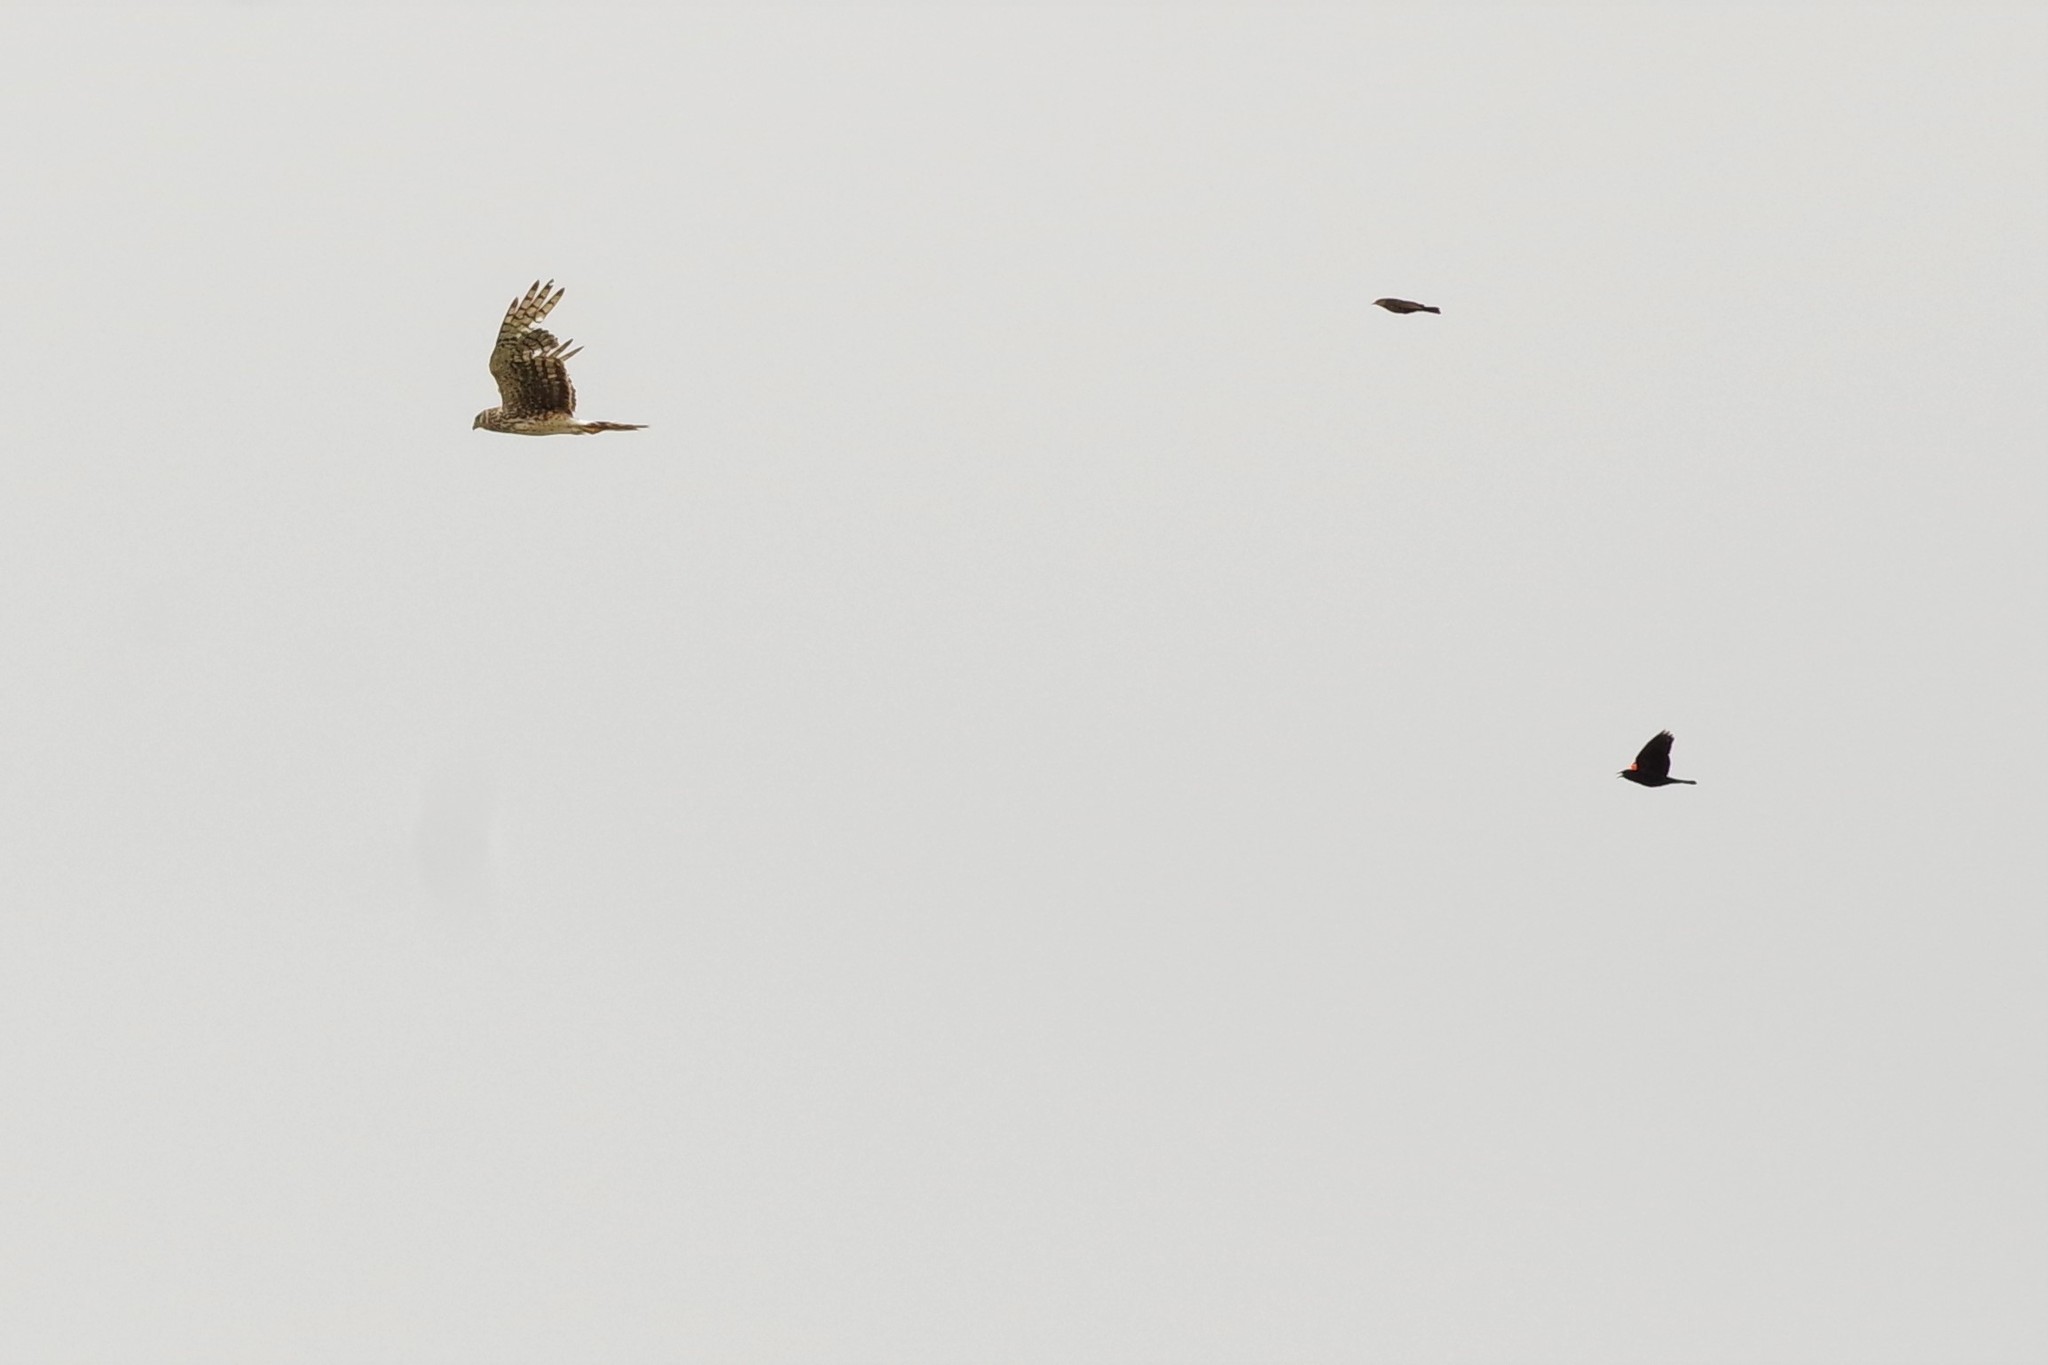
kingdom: Animalia
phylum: Chordata
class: Aves
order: Accipitriformes
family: Accipitridae
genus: Circus
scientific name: Circus cyaneus
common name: Hen harrier
